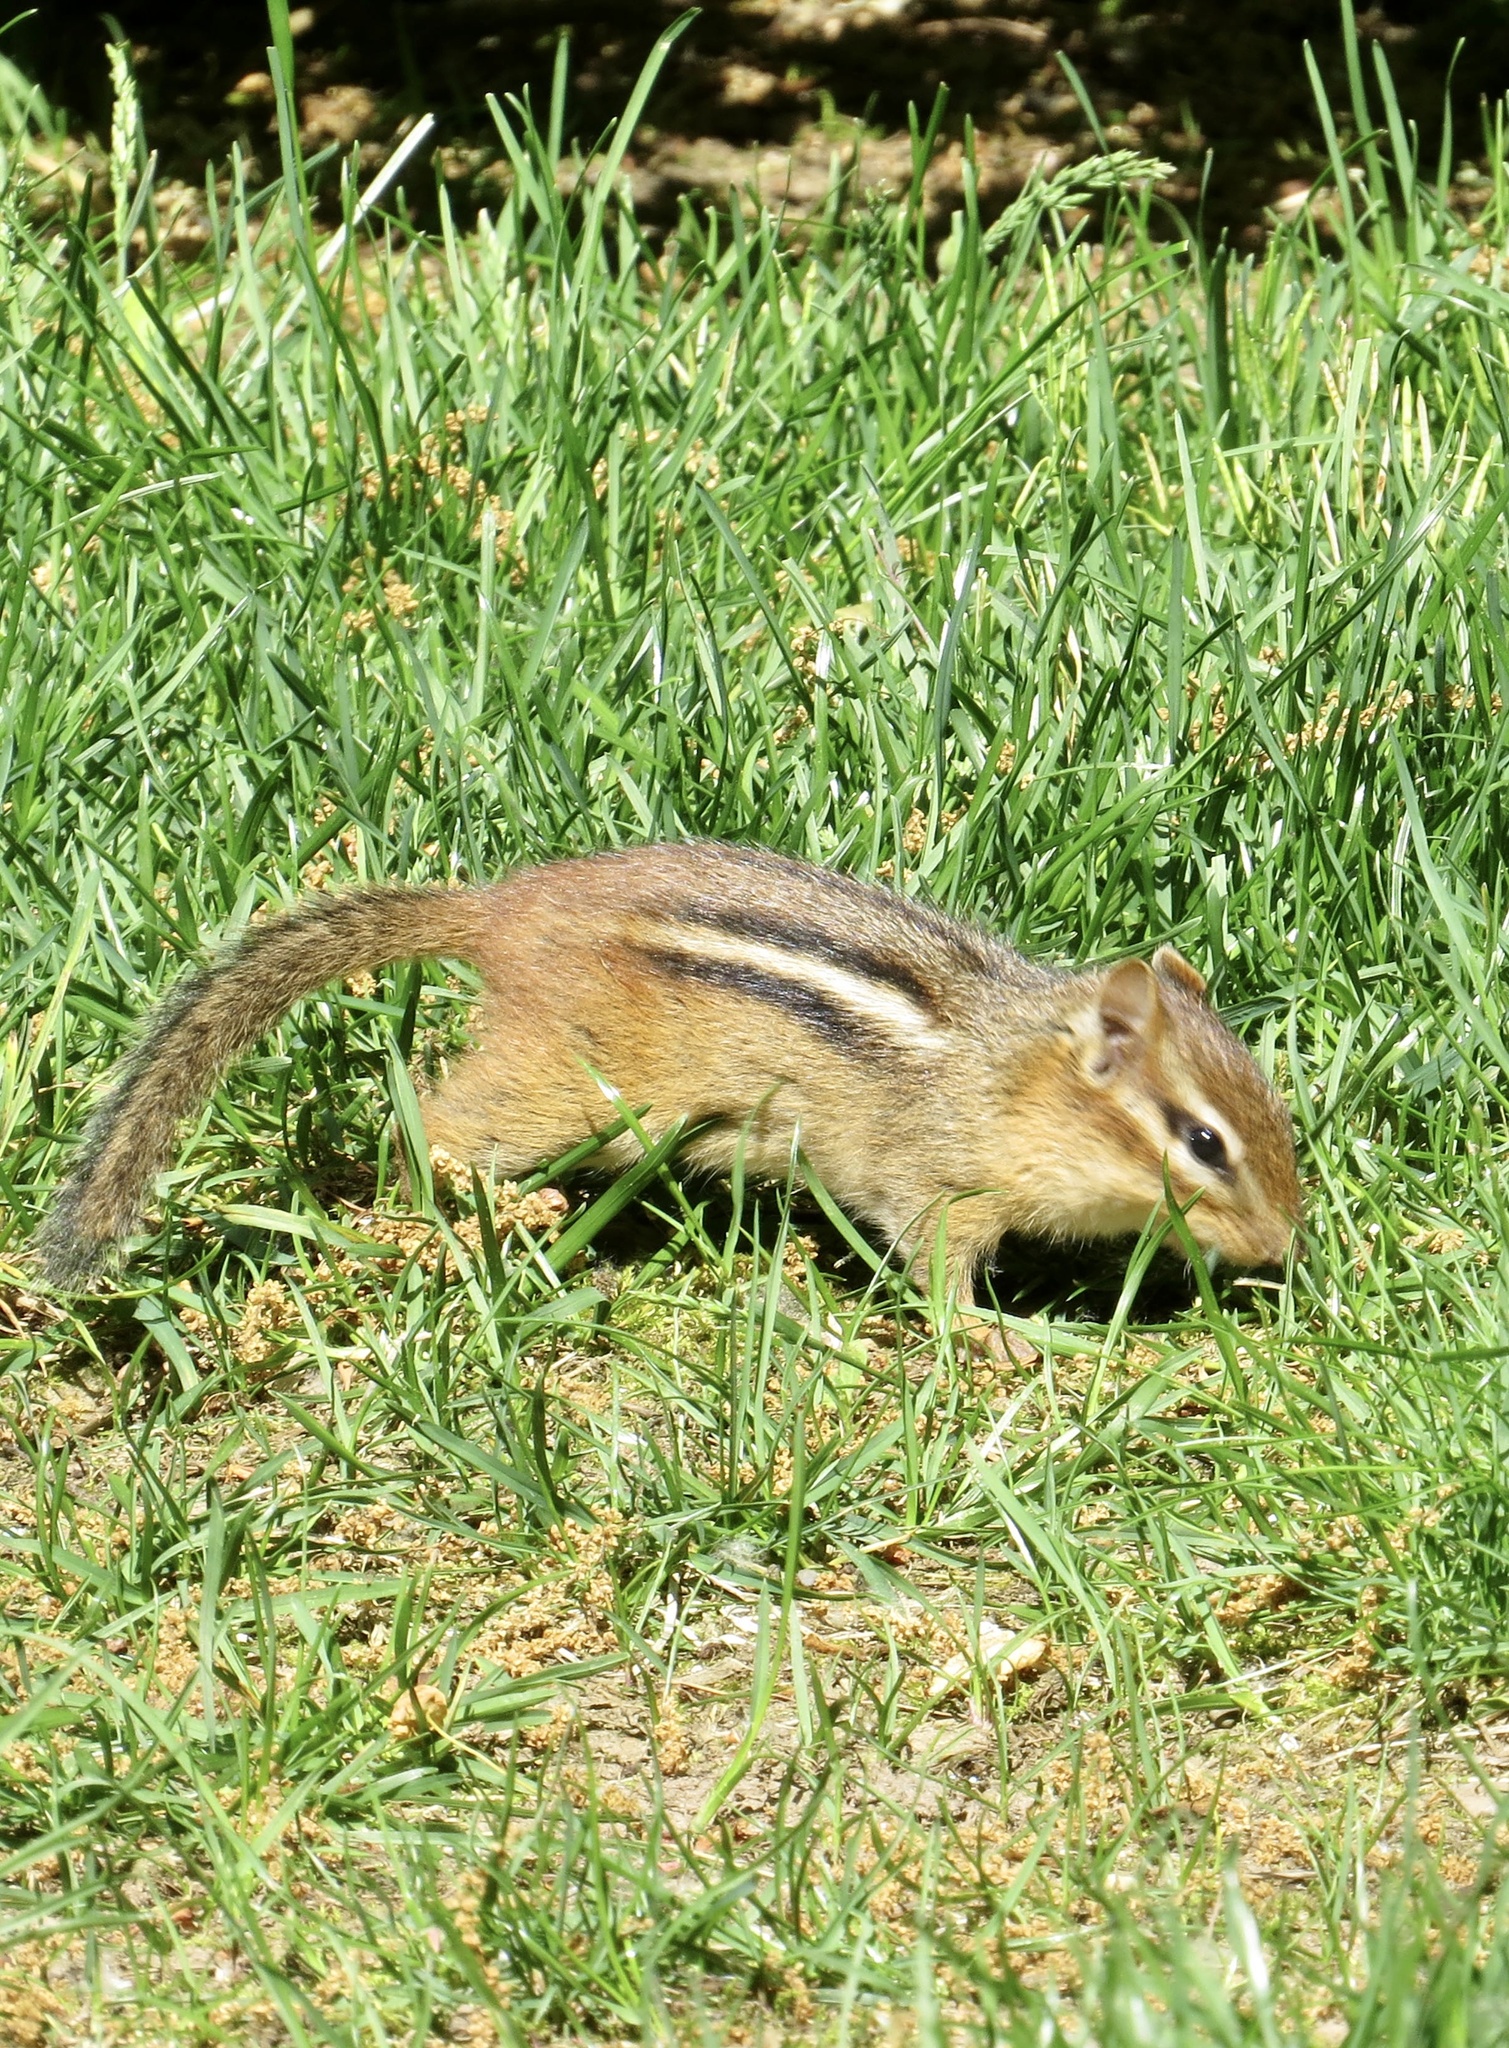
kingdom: Animalia
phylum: Chordata
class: Mammalia
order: Rodentia
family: Sciuridae
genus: Tamias
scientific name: Tamias striatus
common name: Eastern chipmunk
